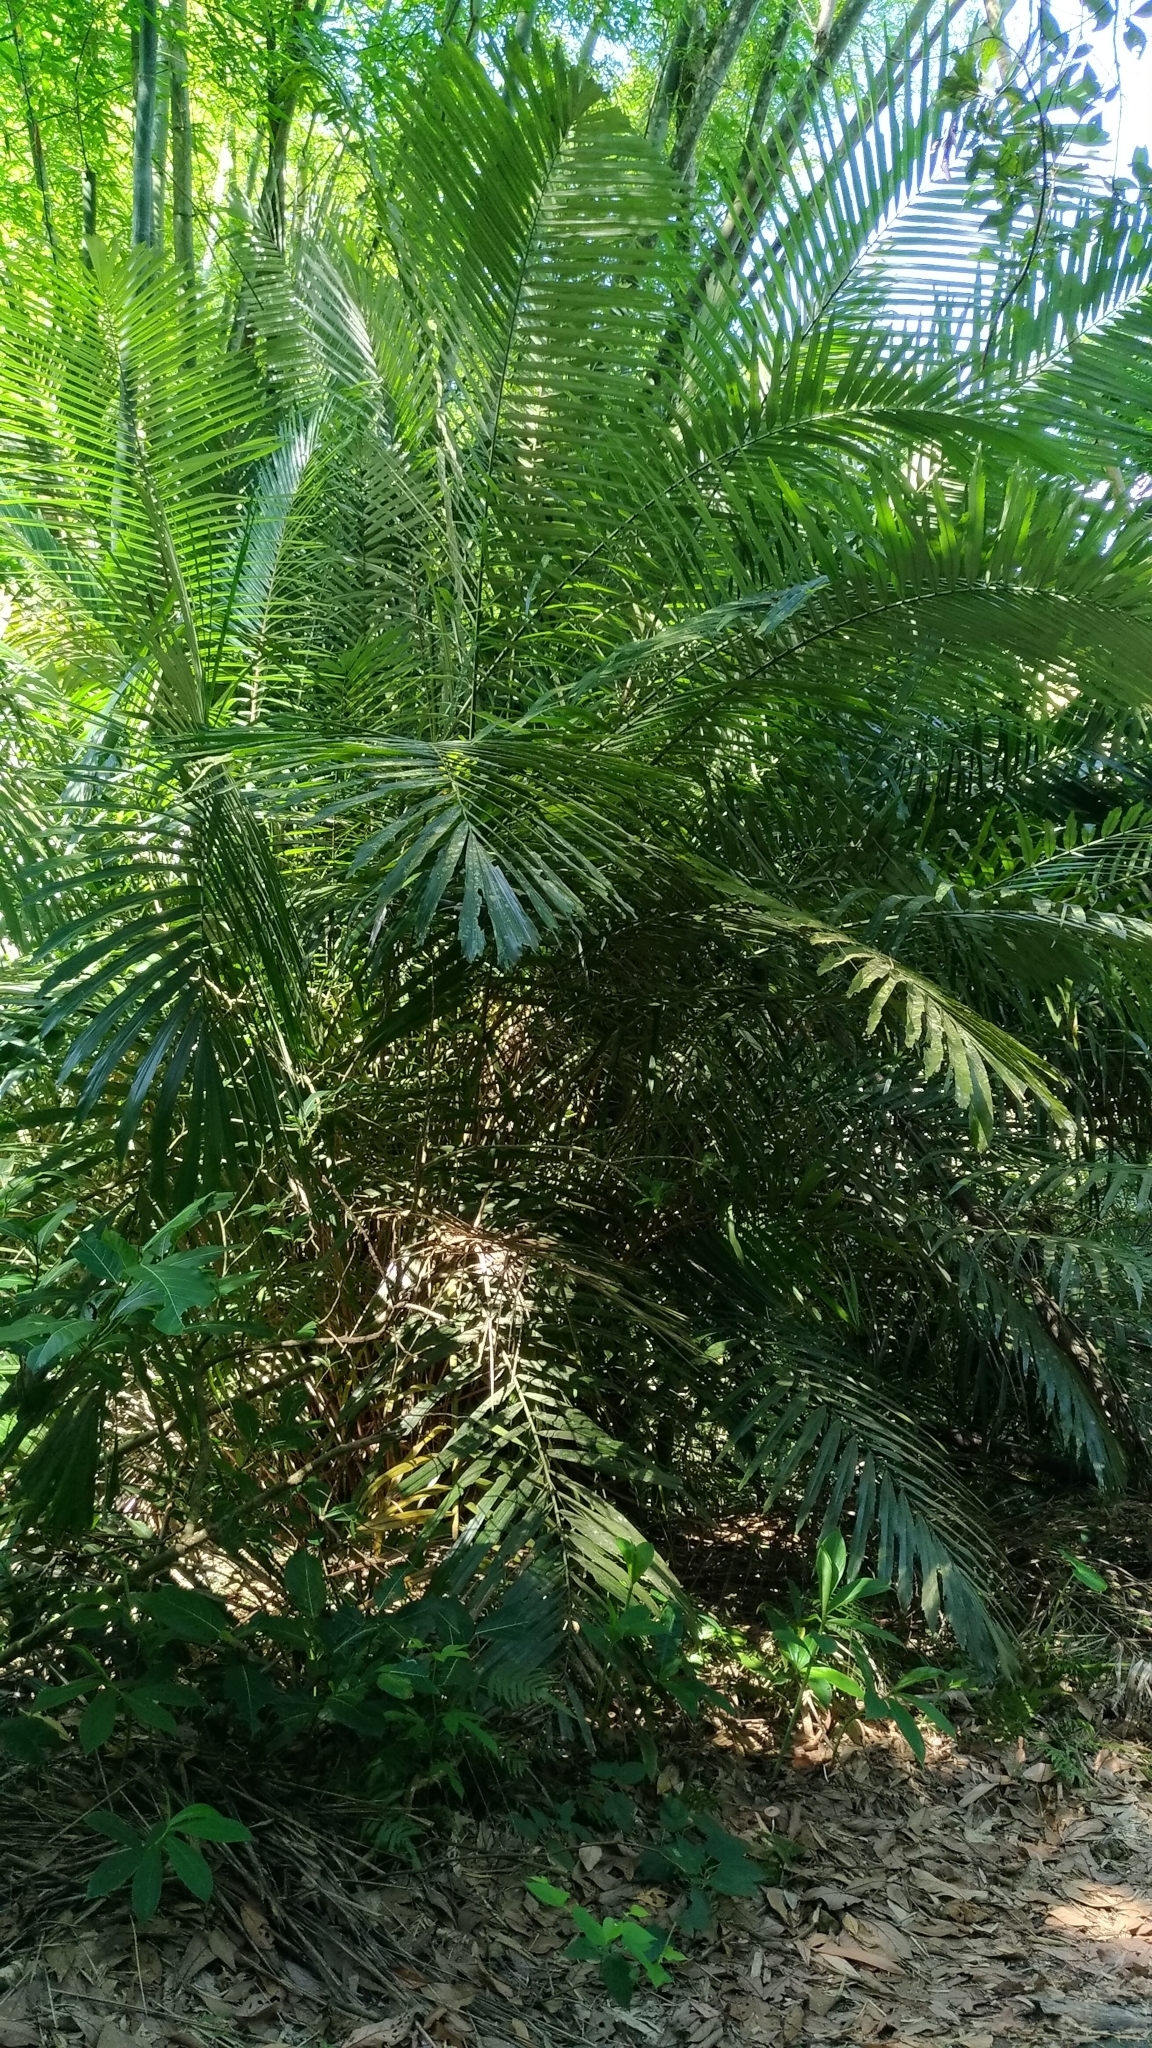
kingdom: Plantae
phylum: Tracheophyta
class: Liliopsida
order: Arecales
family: Arecaceae
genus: Arenga
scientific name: Arenga engleri
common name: Formosan sugar palm
